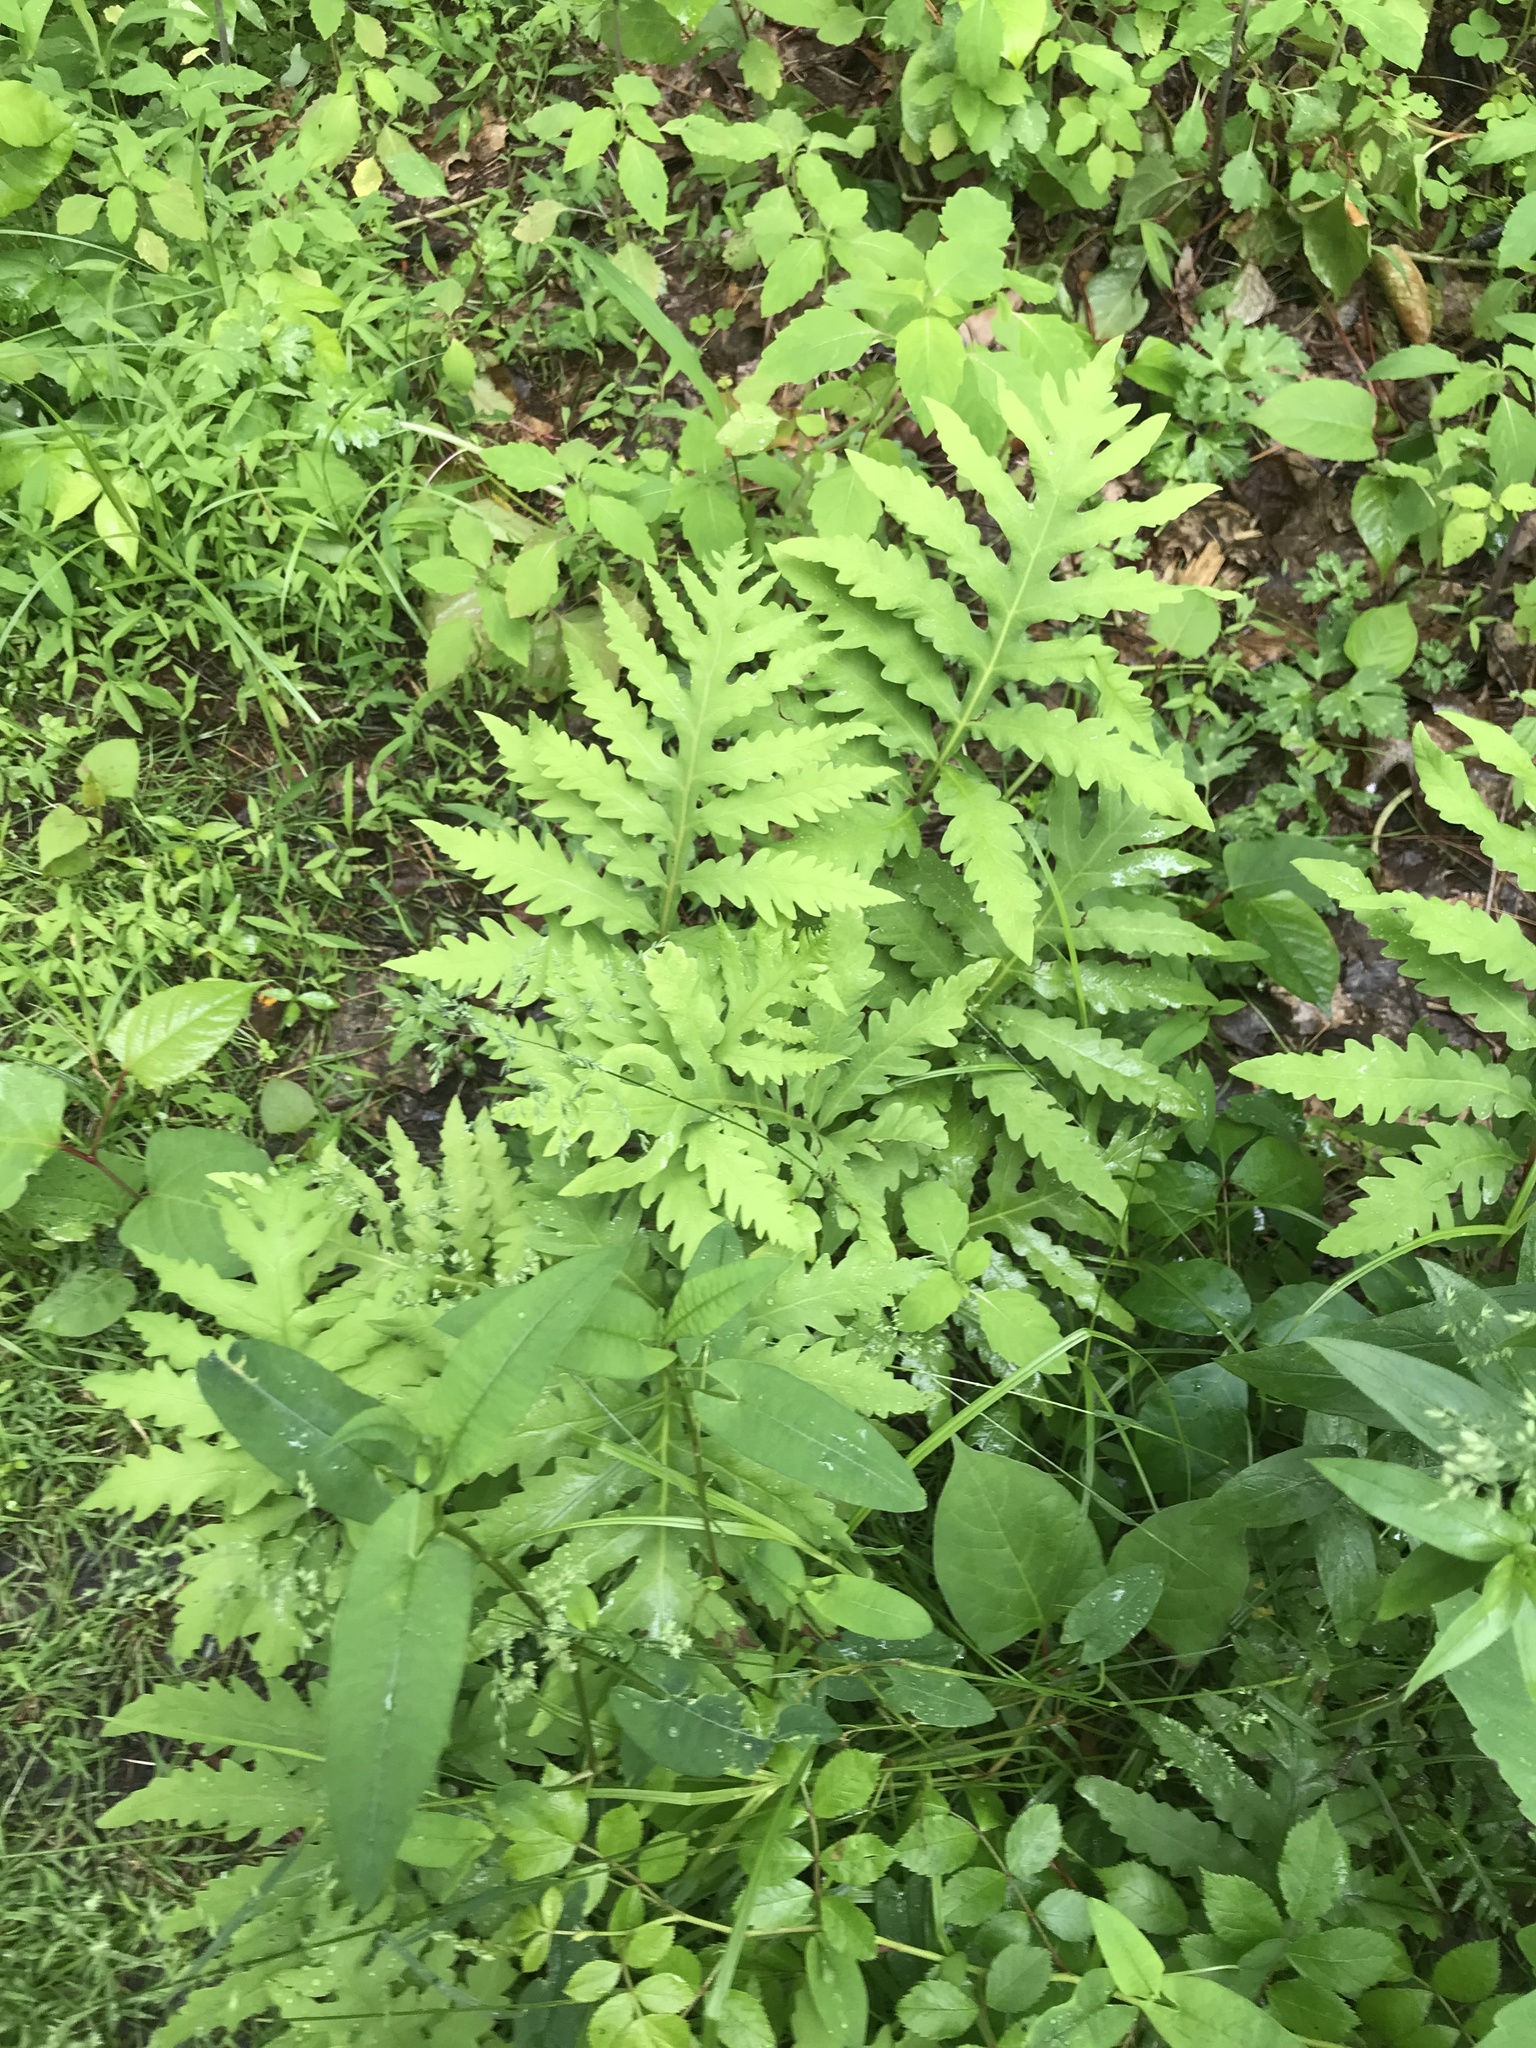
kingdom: Plantae
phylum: Tracheophyta
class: Polypodiopsida
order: Polypodiales
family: Onocleaceae
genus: Onoclea
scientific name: Onoclea sensibilis
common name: Sensitive fern
